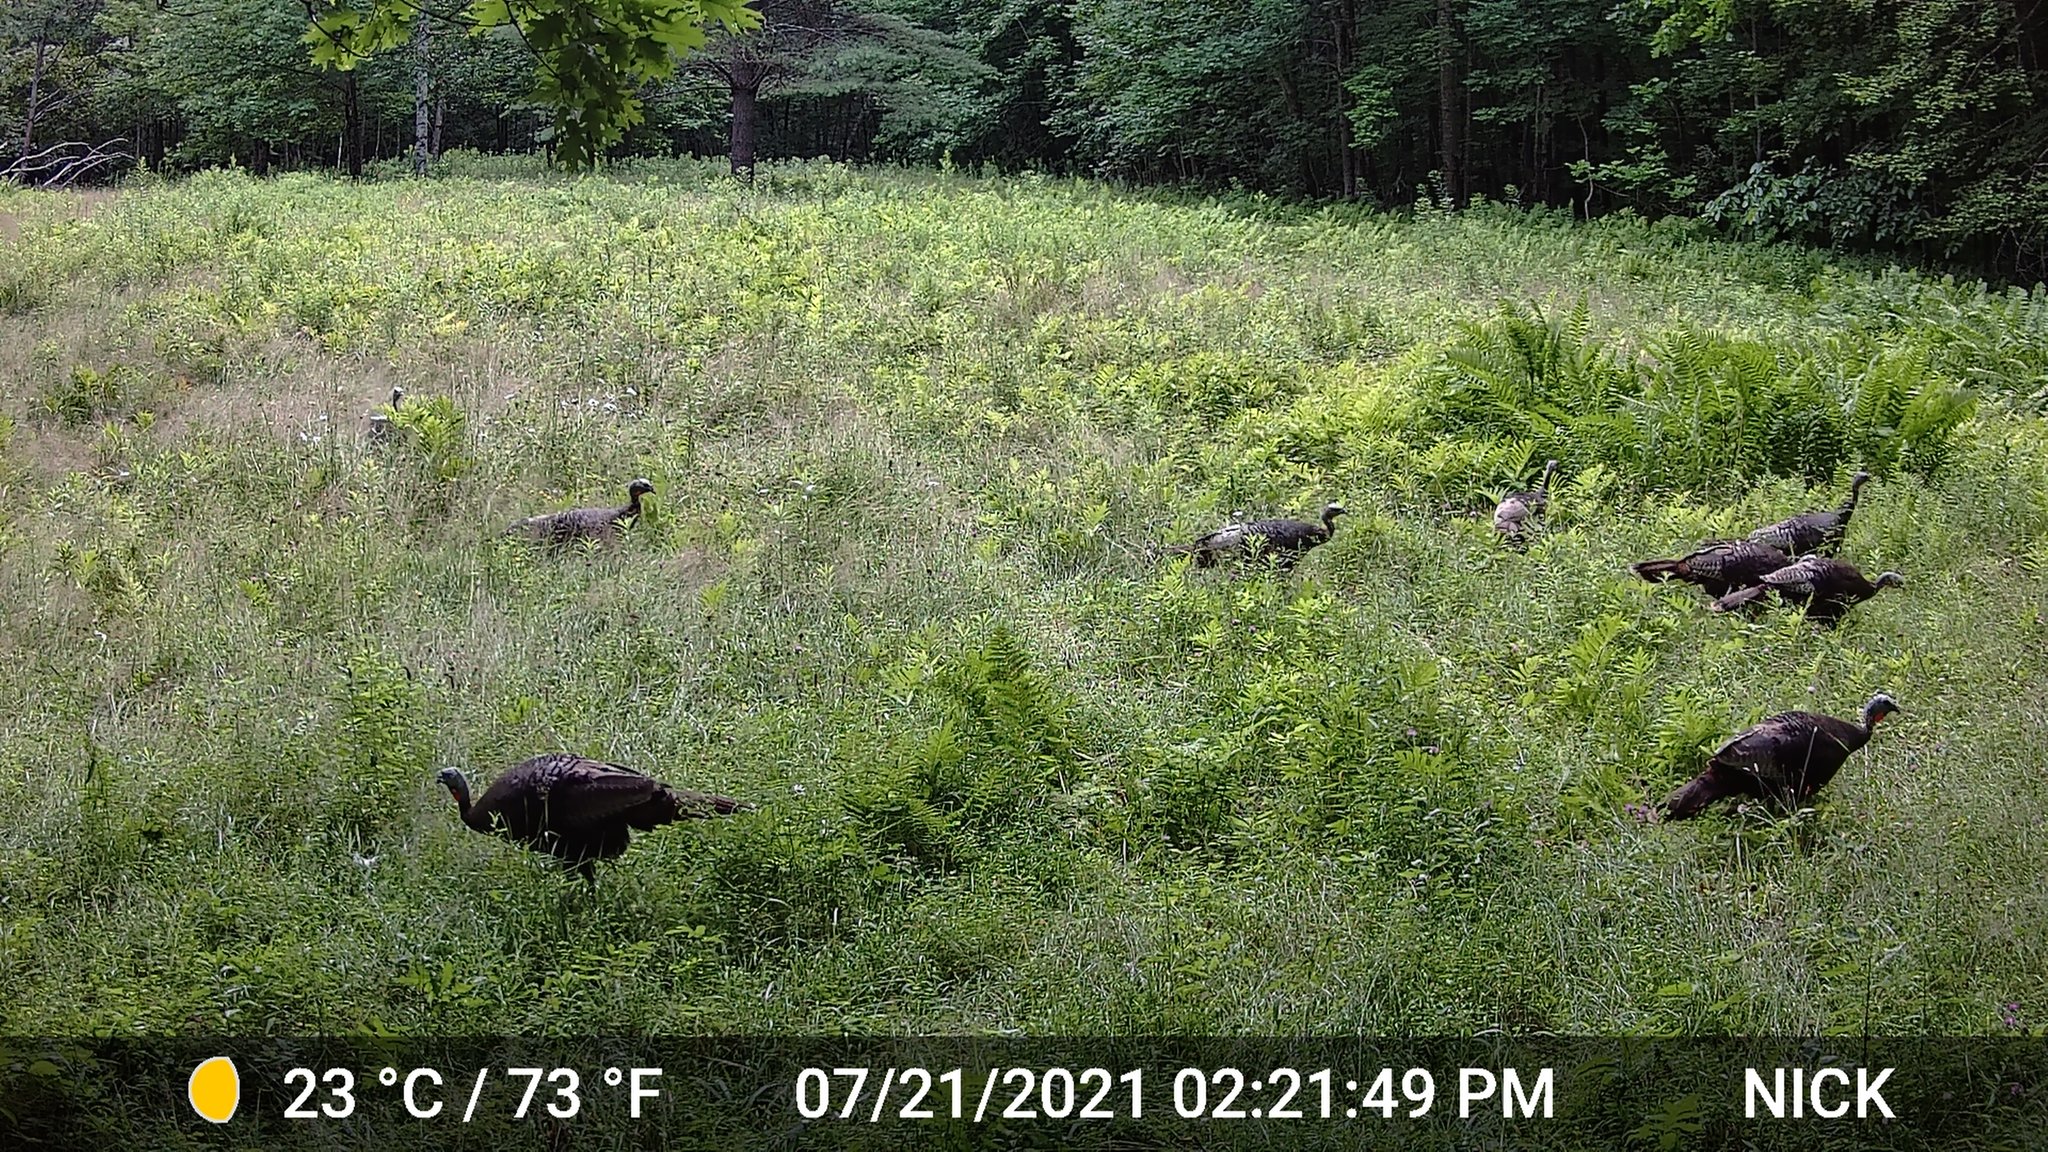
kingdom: Animalia
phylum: Chordata
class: Aves
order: Galliformes
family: Phasianidae
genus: Meleagris
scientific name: Meleagris gallopavo
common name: Wild turkey
